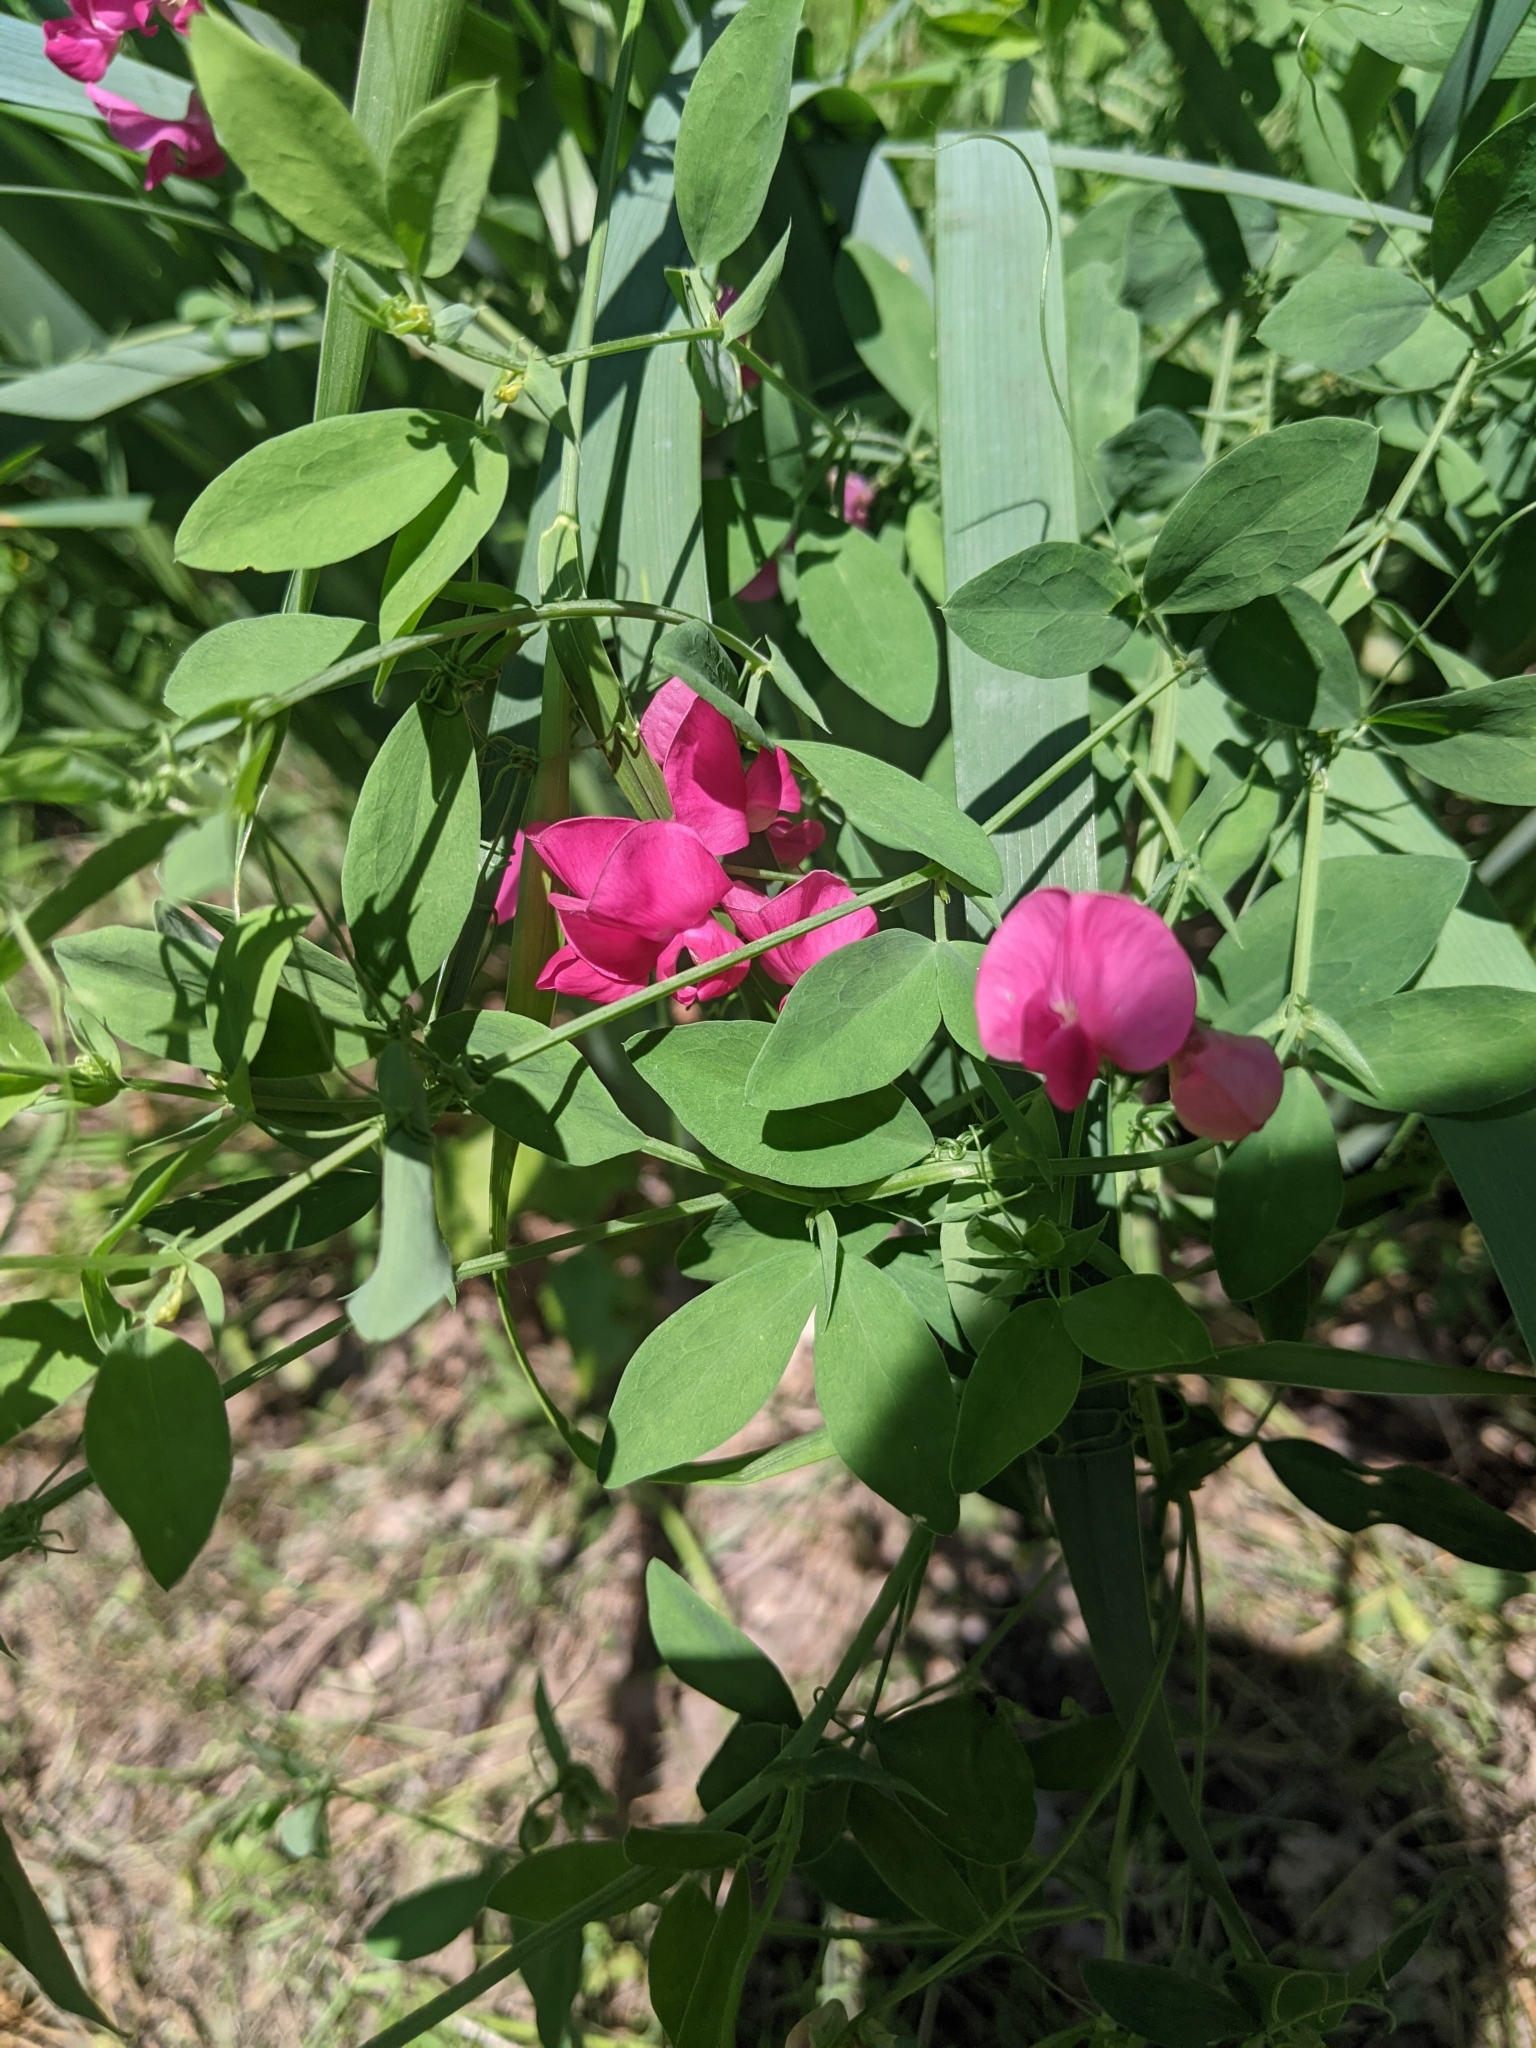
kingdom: Plantae
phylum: Tracheophyta
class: Magnoliopsida
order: Fabales
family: Fabaceae
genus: Lathyrus
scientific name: Lathyrus tuberosus
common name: Tuberous pea
